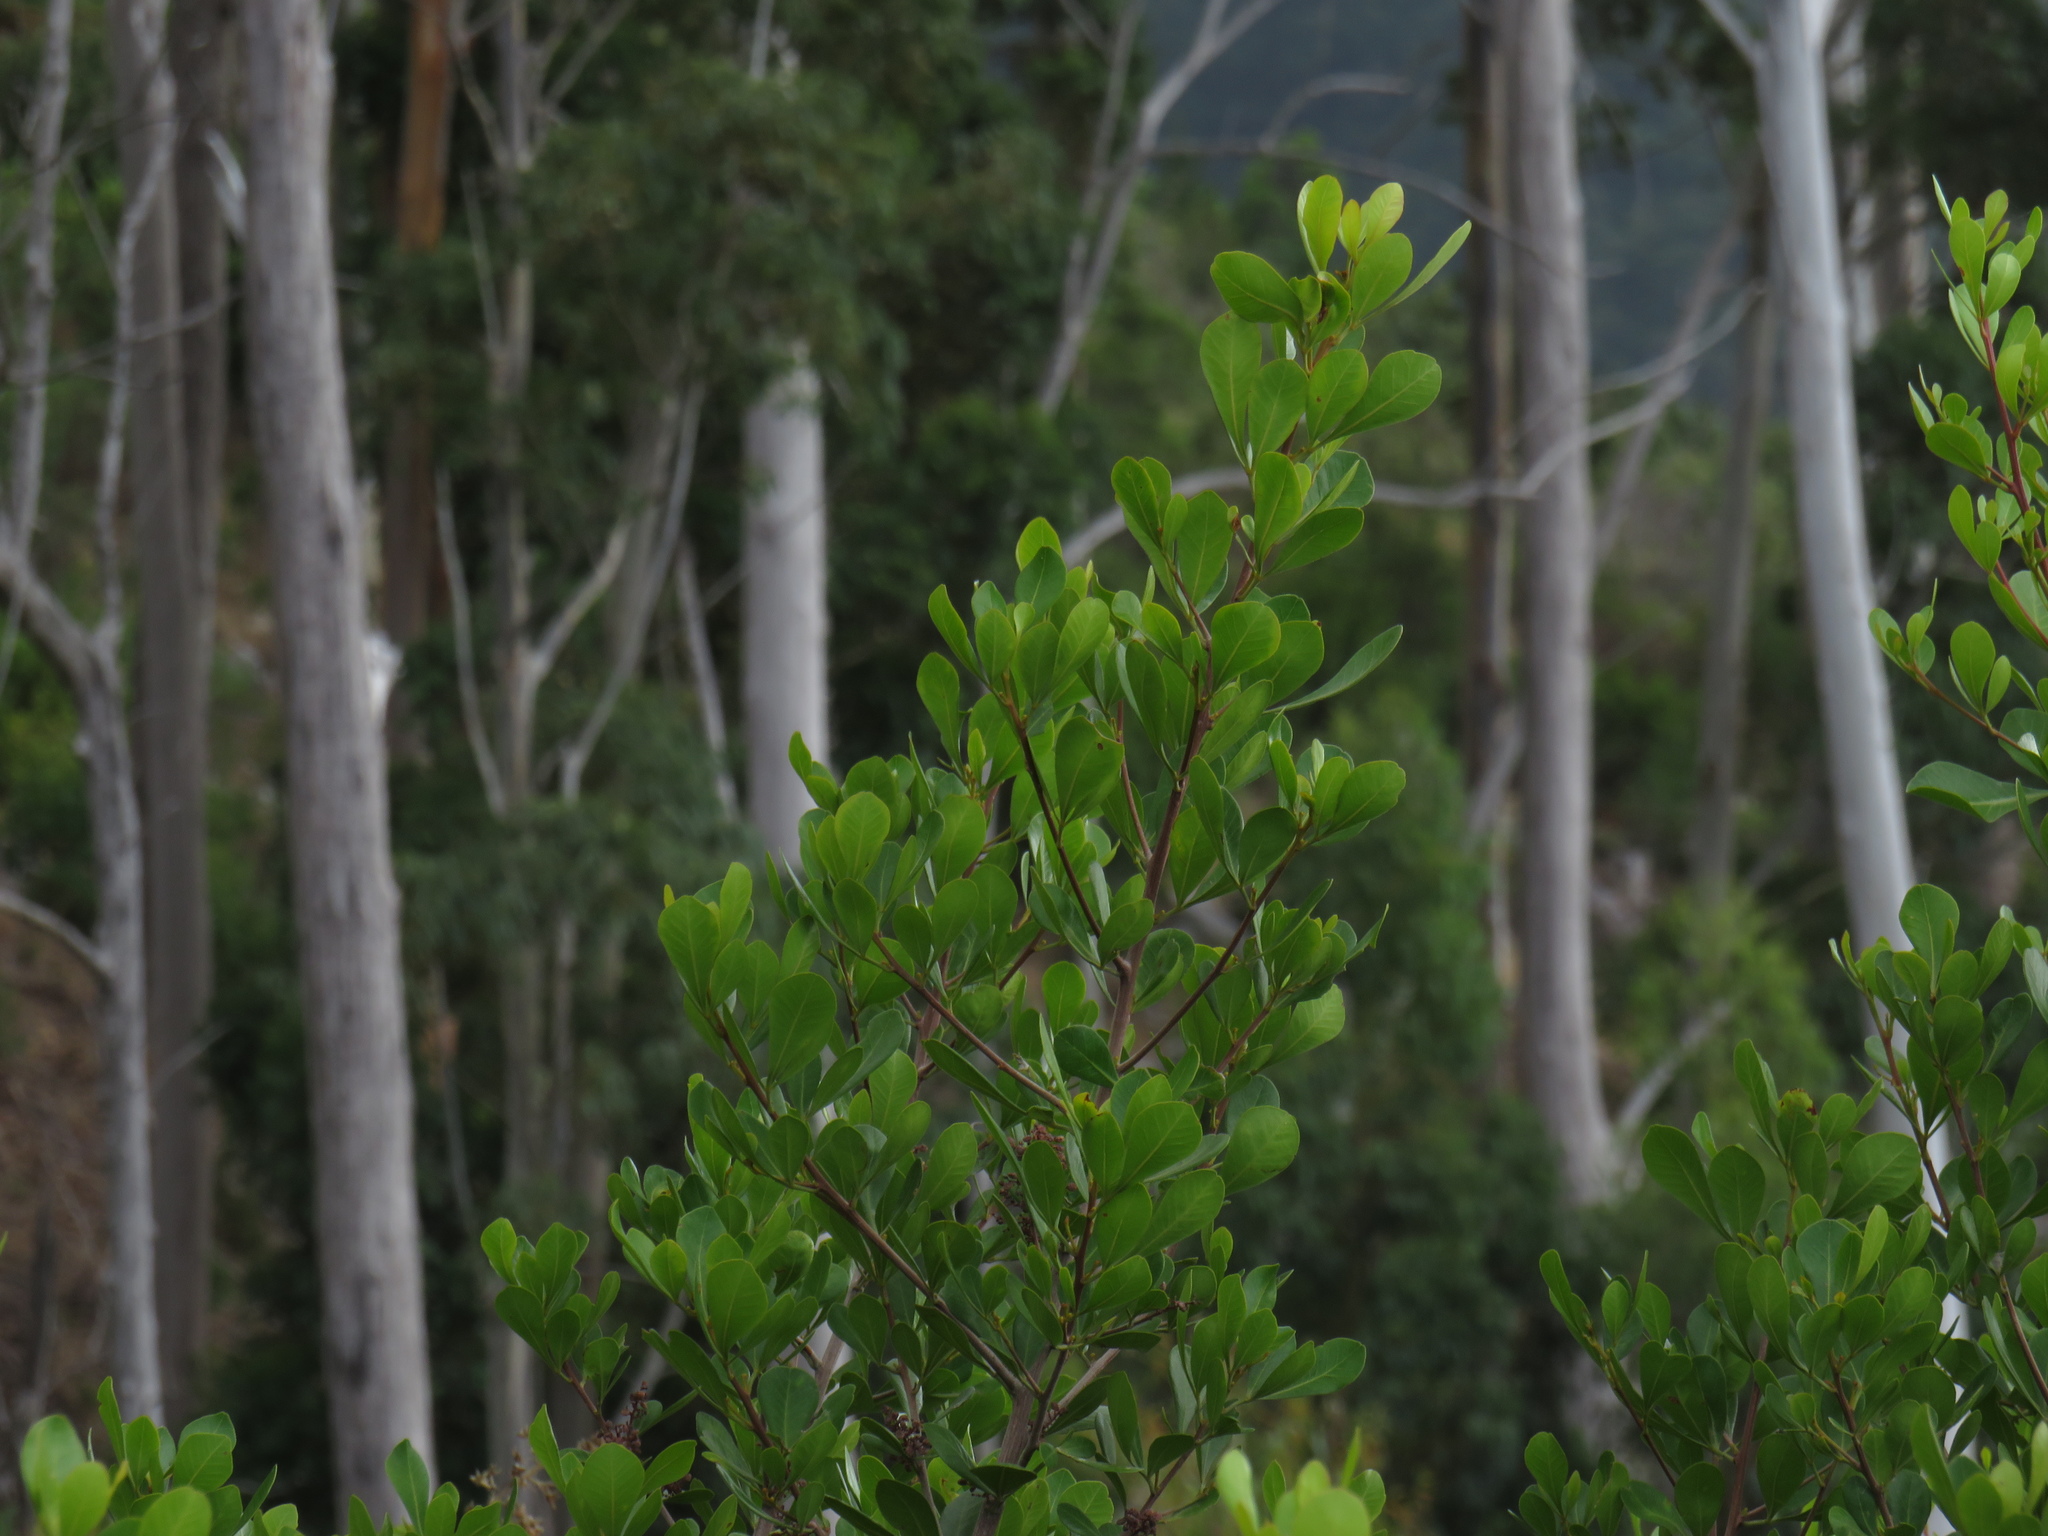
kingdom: Plantae
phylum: Tracheophyta
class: Magnoliopsida
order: Sapindales
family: Anacardiaceae
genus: Searsia
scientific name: Searsia lucida
